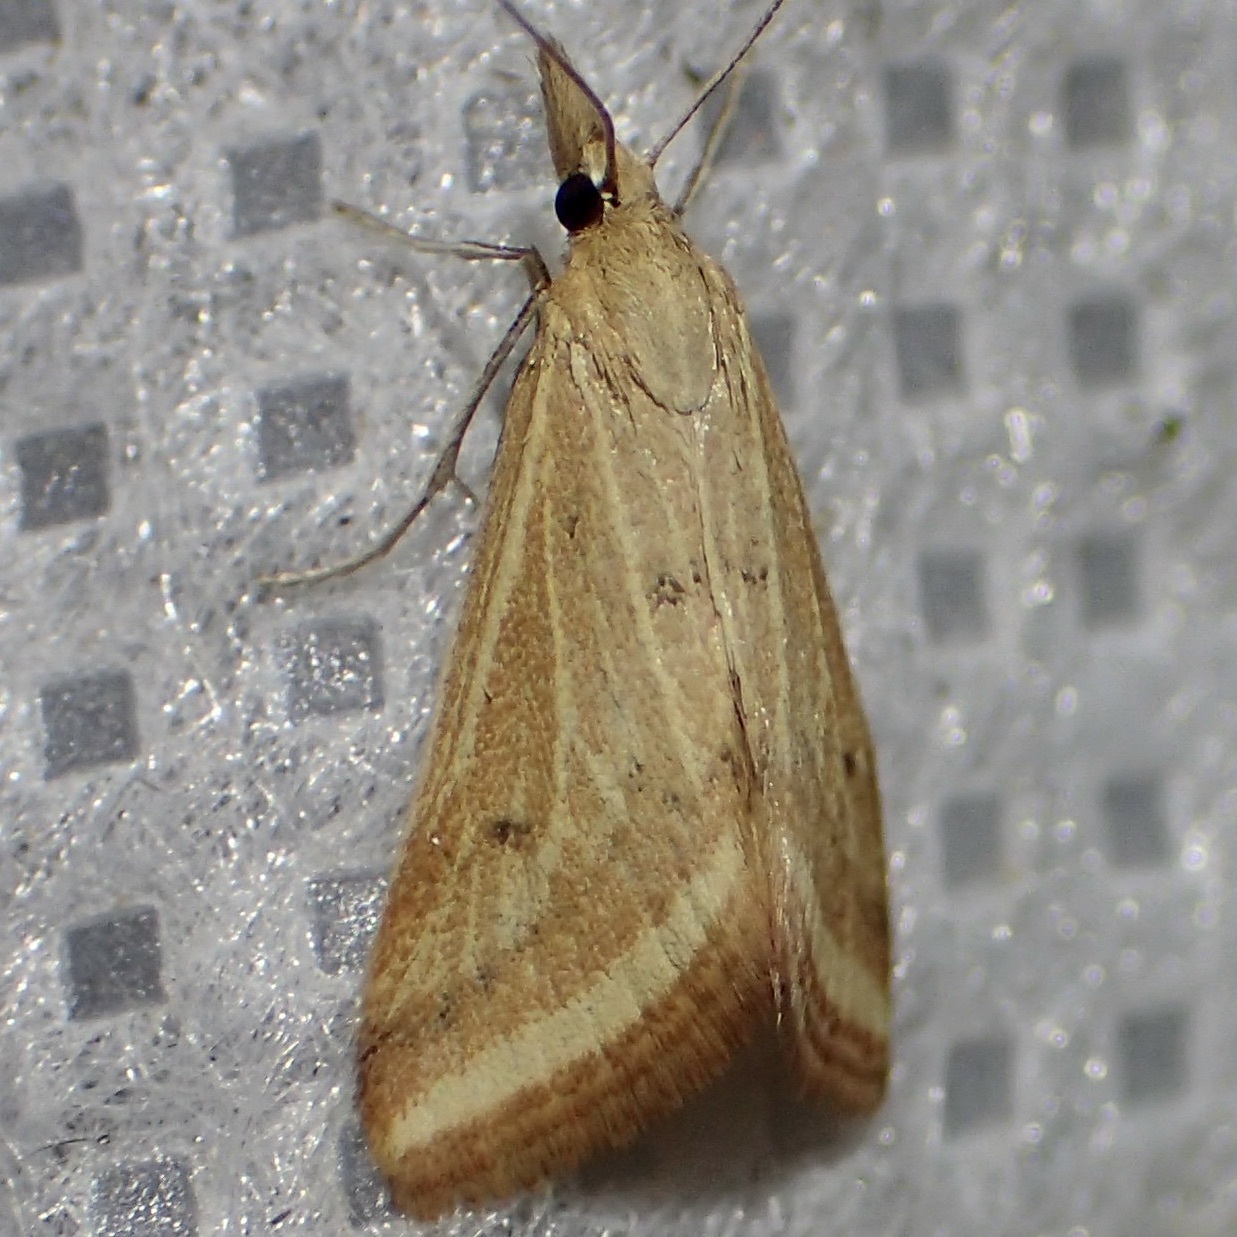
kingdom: Animalia
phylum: Arthropoda
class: Insecta
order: Lepidoptera
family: Crambidae
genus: Microtheoris
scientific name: Microtheoris ophionalis
